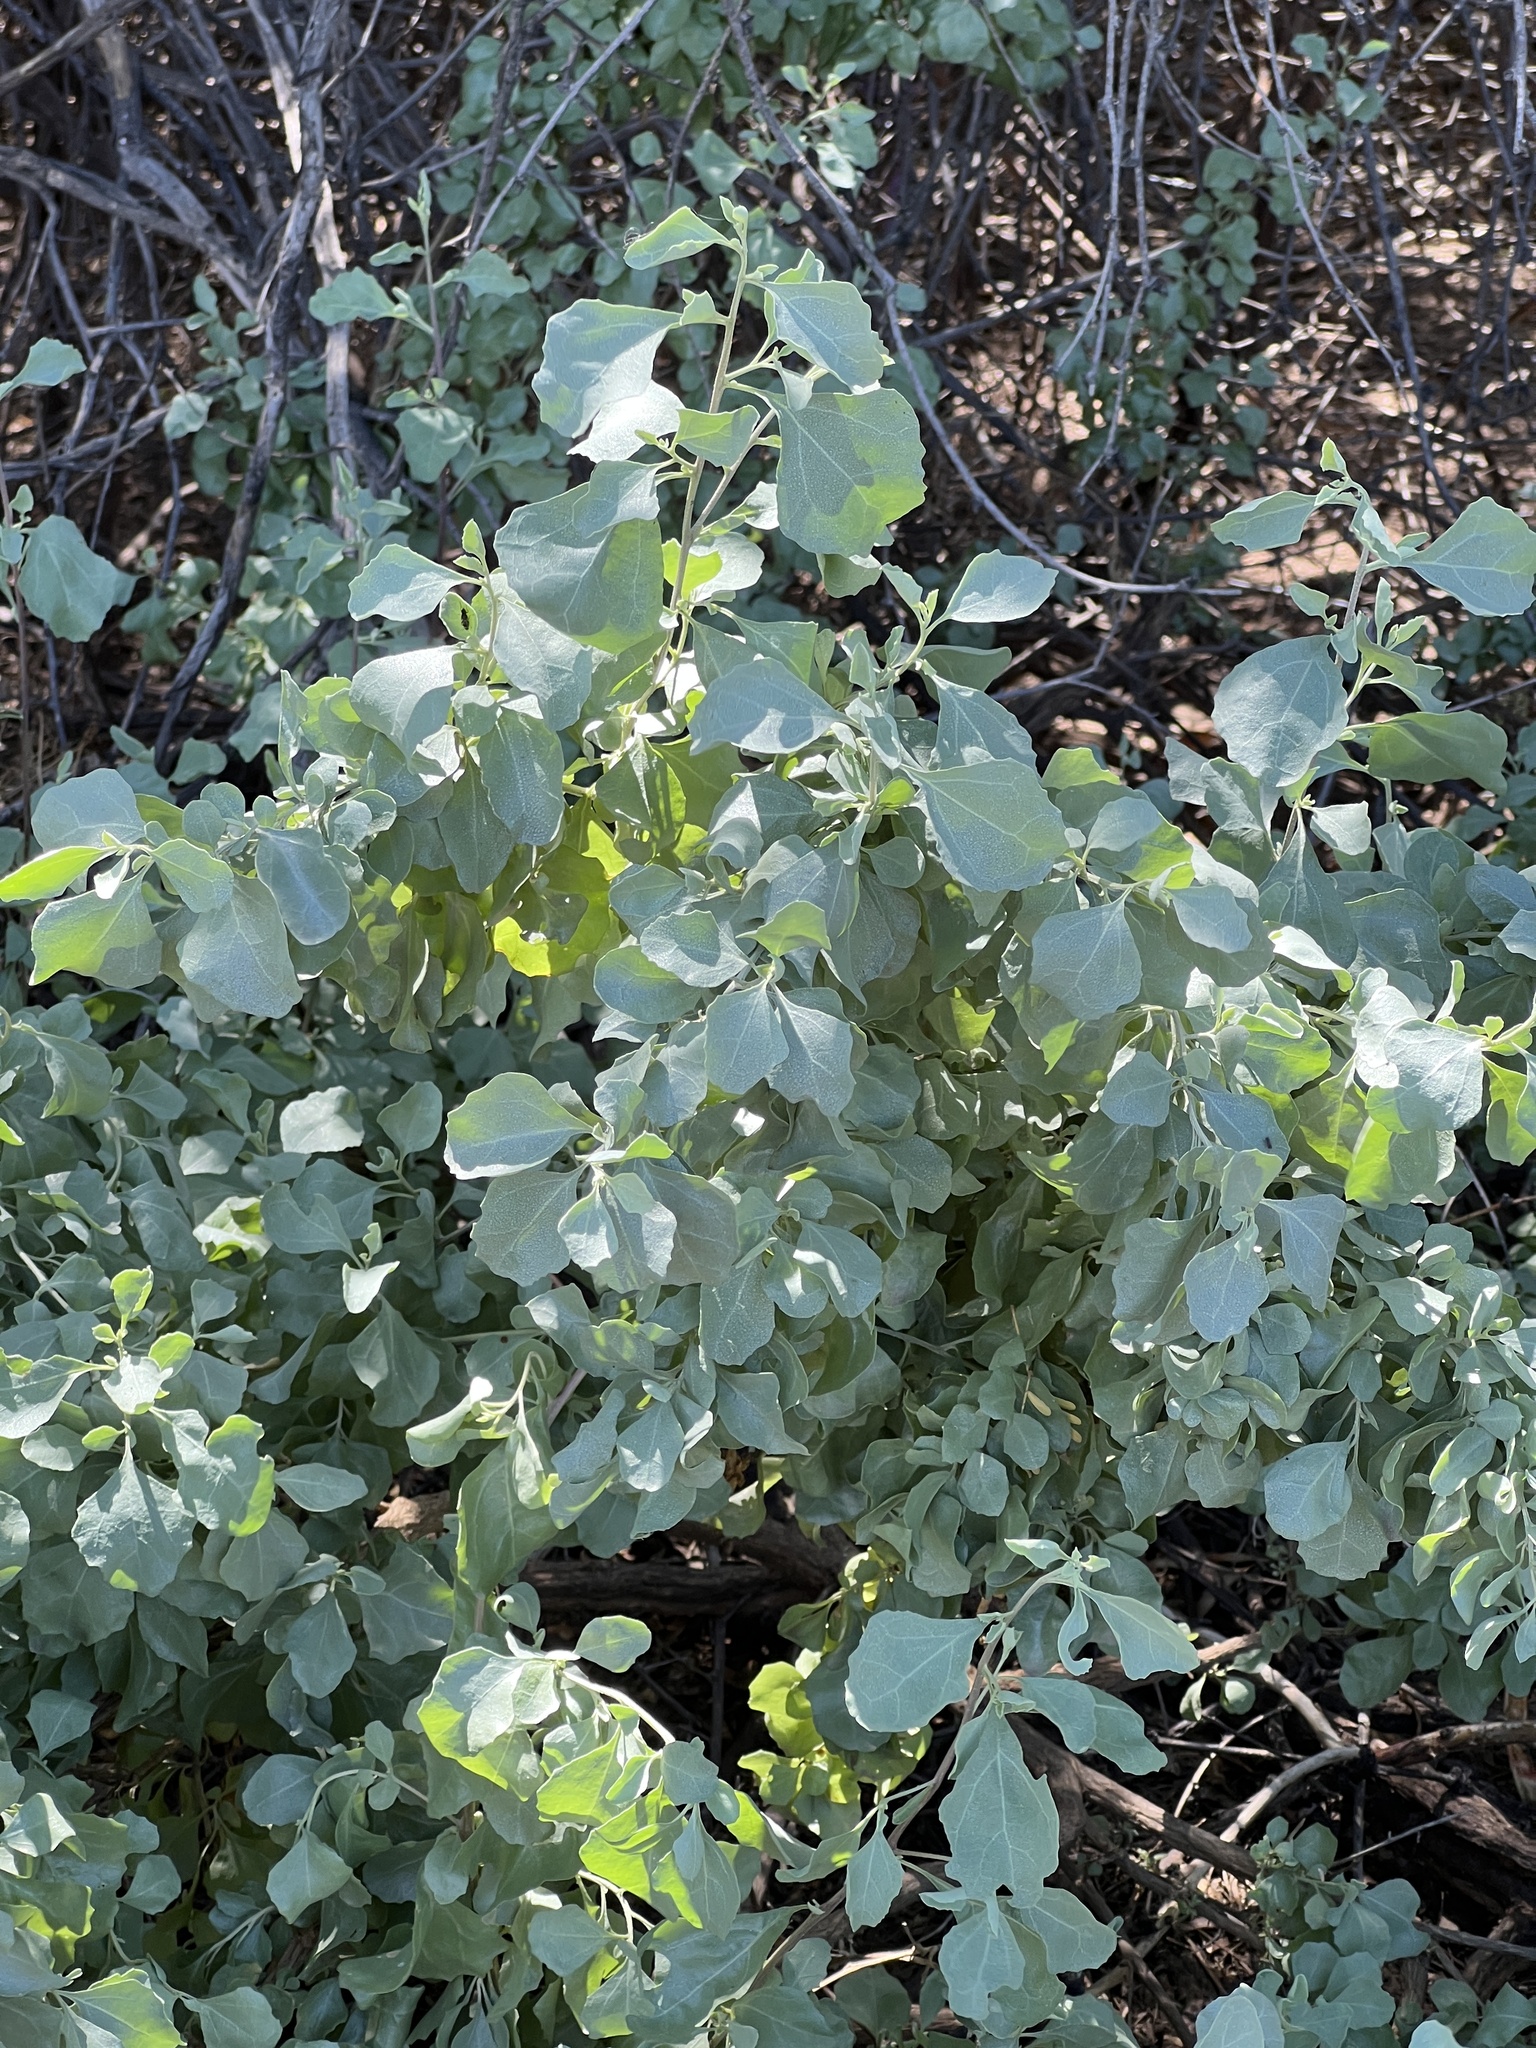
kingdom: Plantae
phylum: Tracheophyta
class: Magnoliopsida
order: Caryophyllales
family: Amaranthaceae
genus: Atriplex
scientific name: Atriplex lentiformis
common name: Big saltbush
